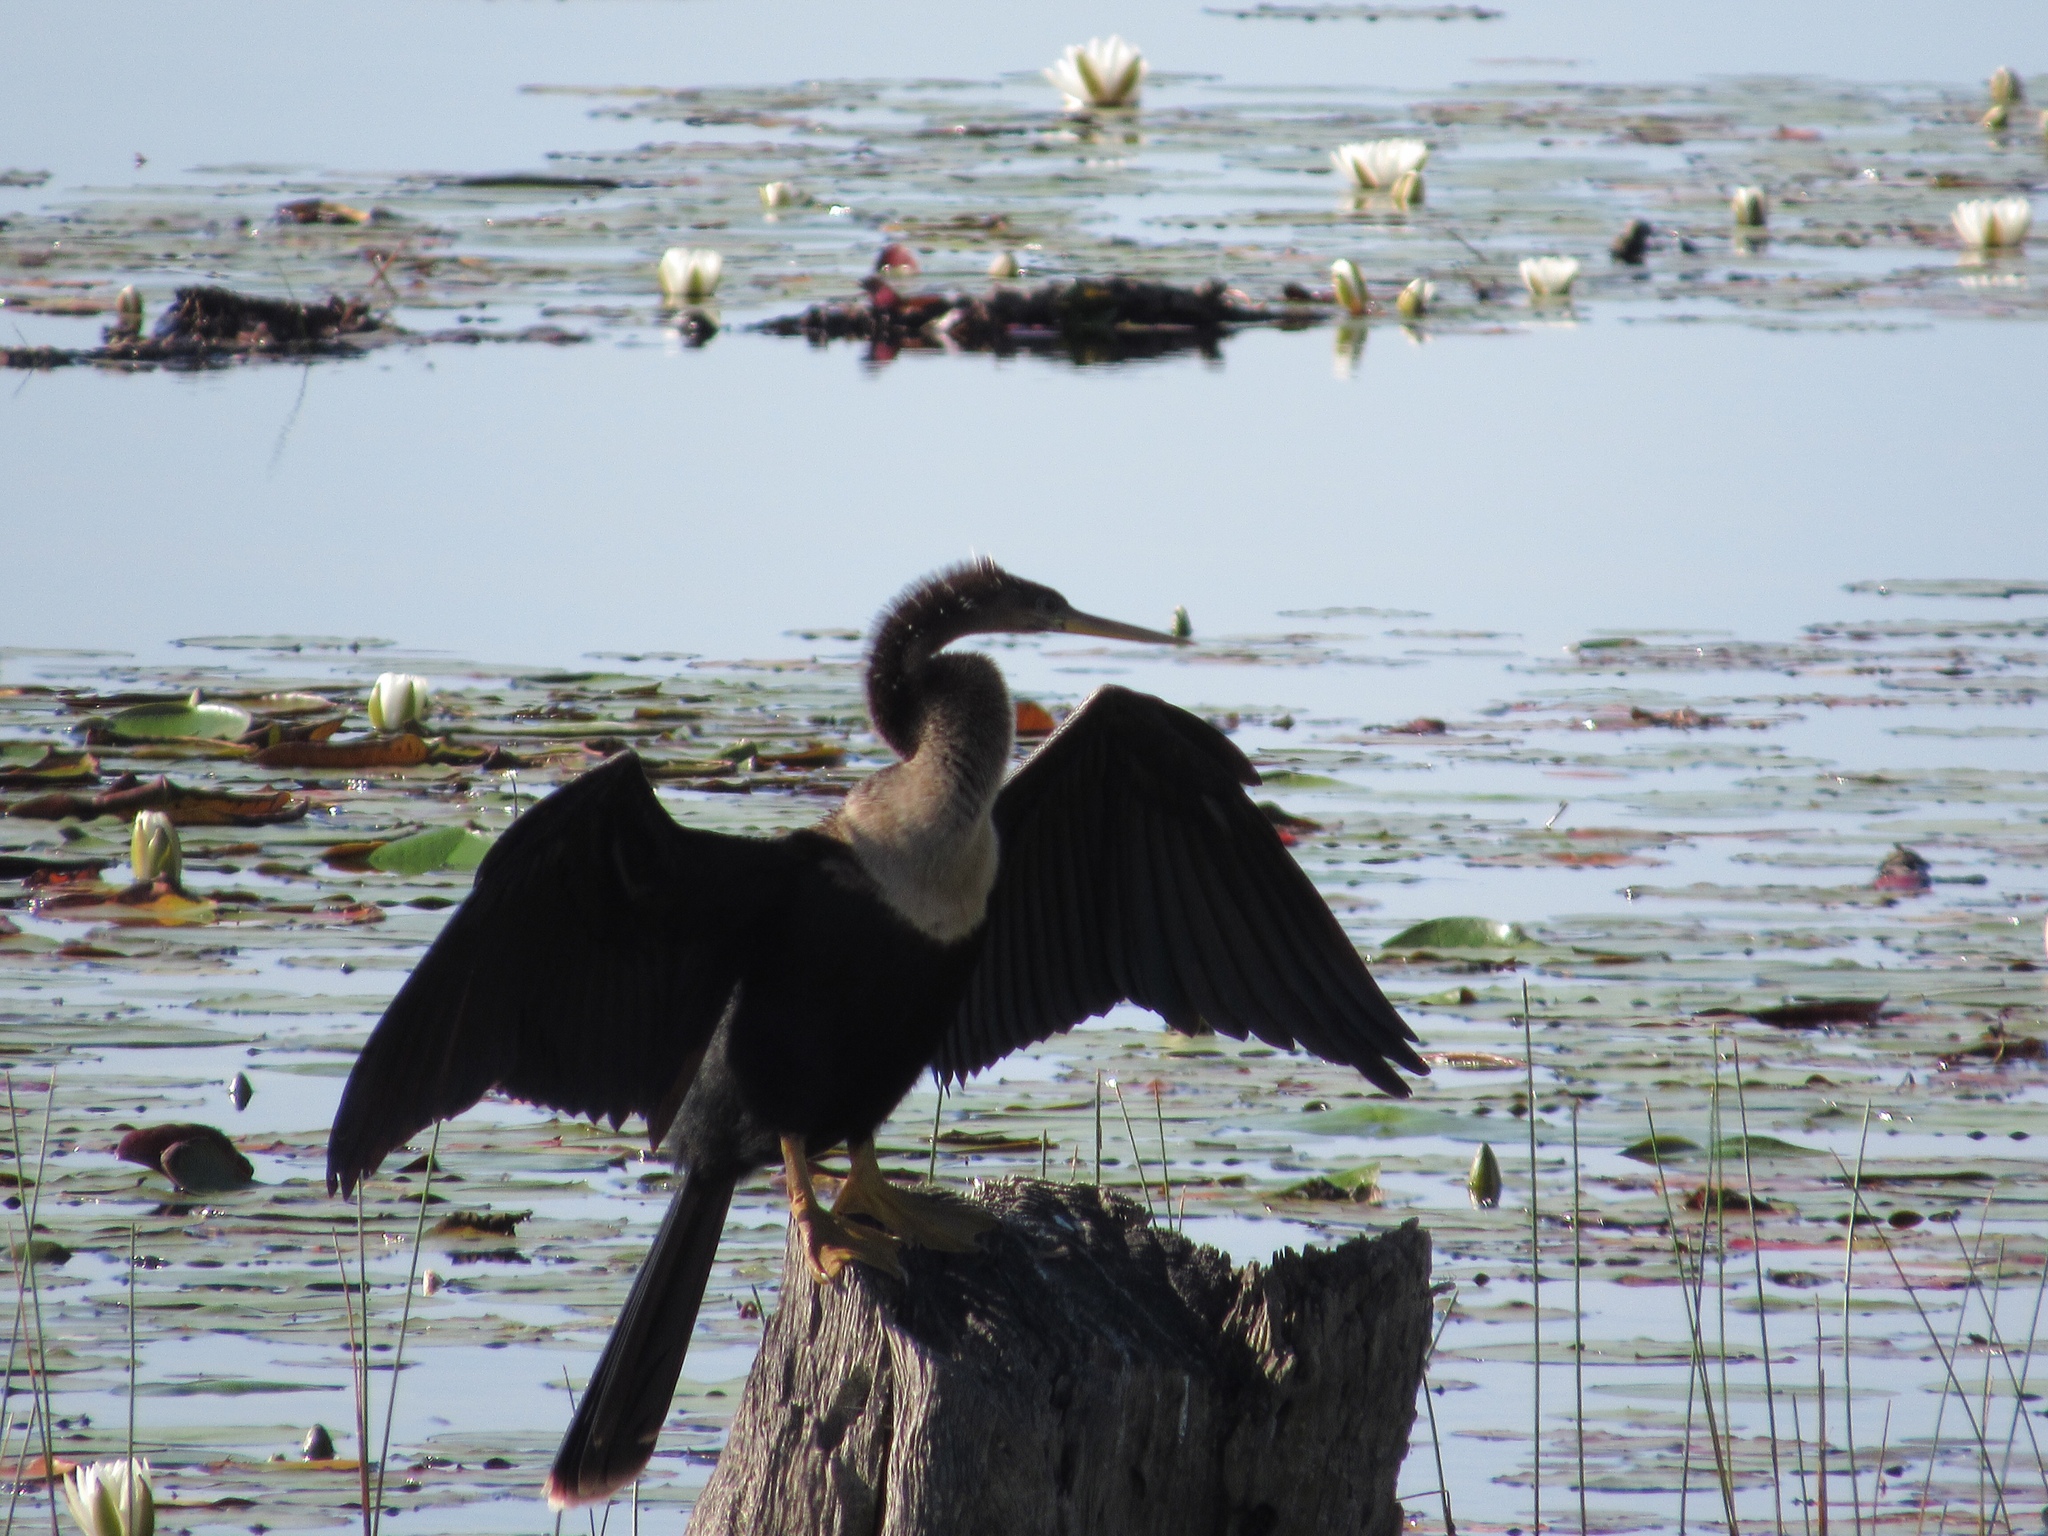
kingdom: Animalia
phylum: Chordata
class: Aves
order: Suliformes
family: Anhingidae
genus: Anhinga
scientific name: Anhinga anhinga
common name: Anhinga
